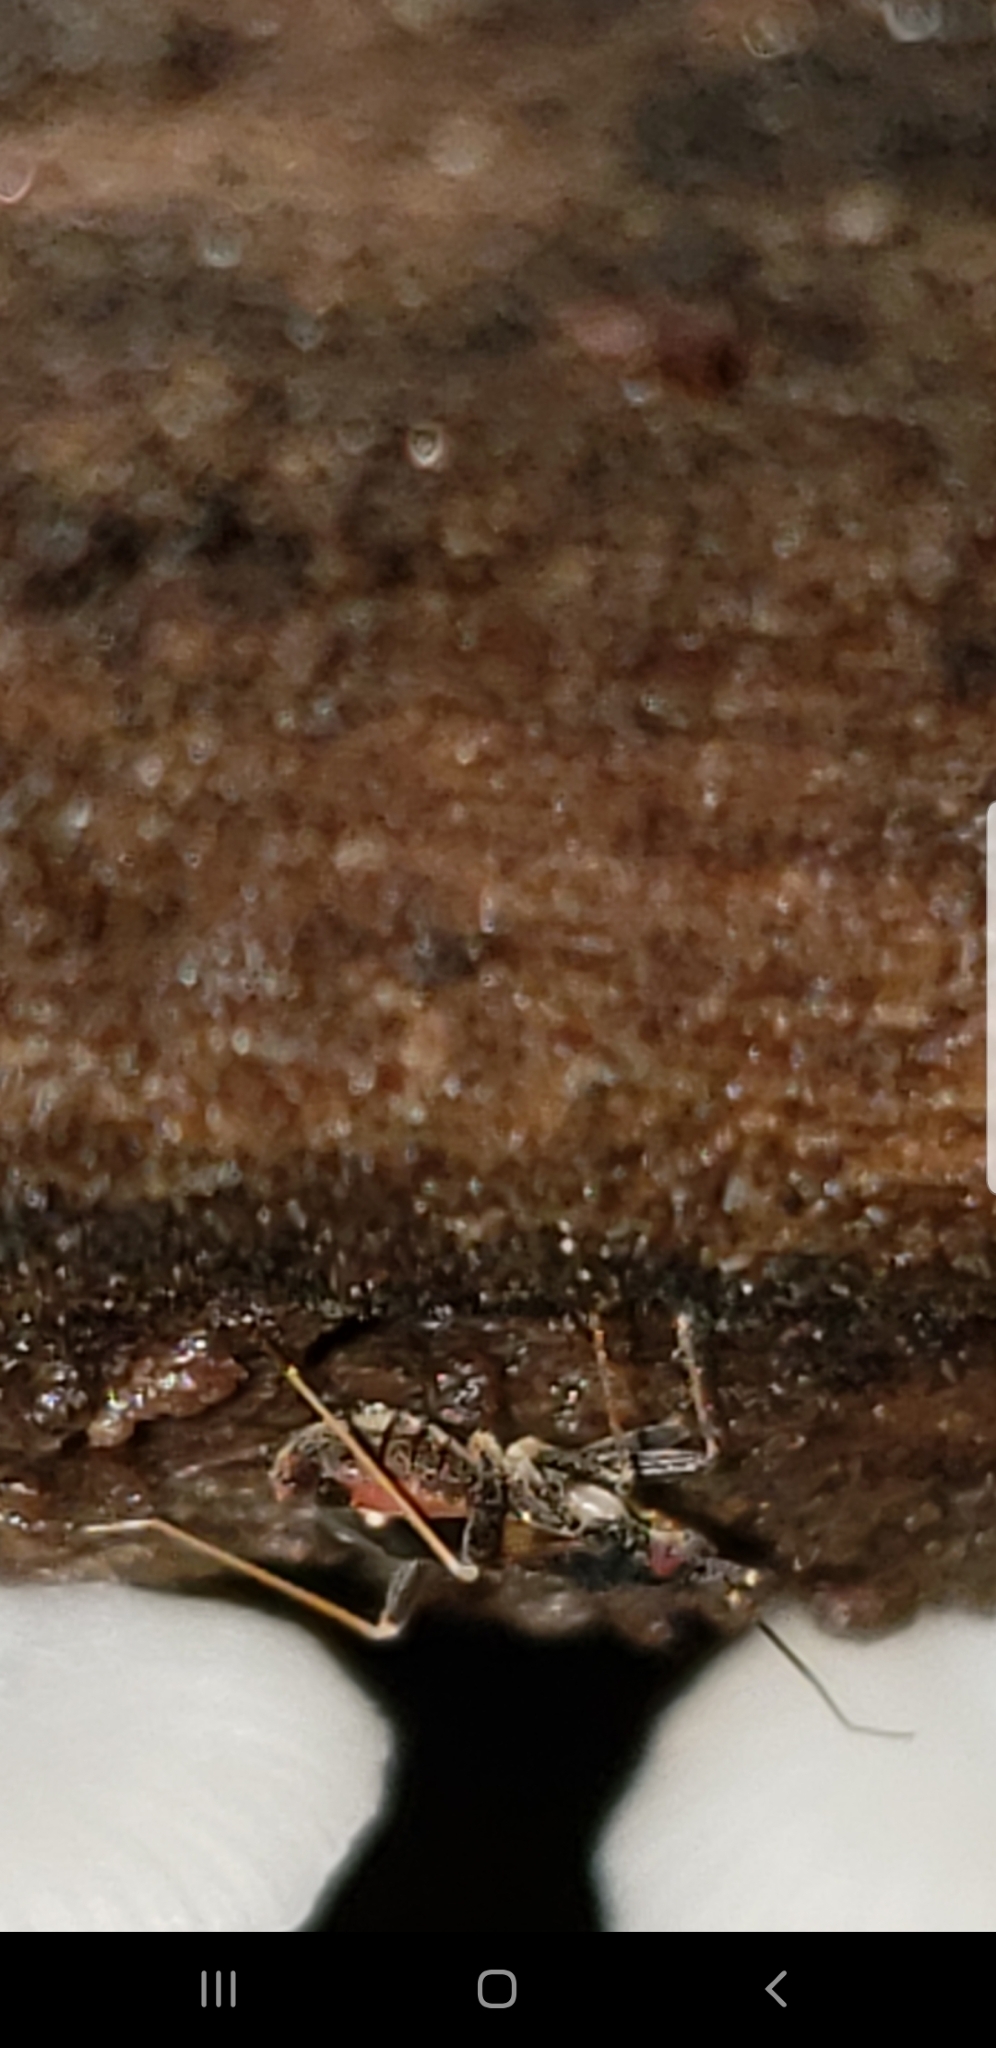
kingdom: Animalia
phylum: Arthropoda
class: Insecta
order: Hemiptera
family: Miridae
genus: Fulvius
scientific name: Fulvius slateri
